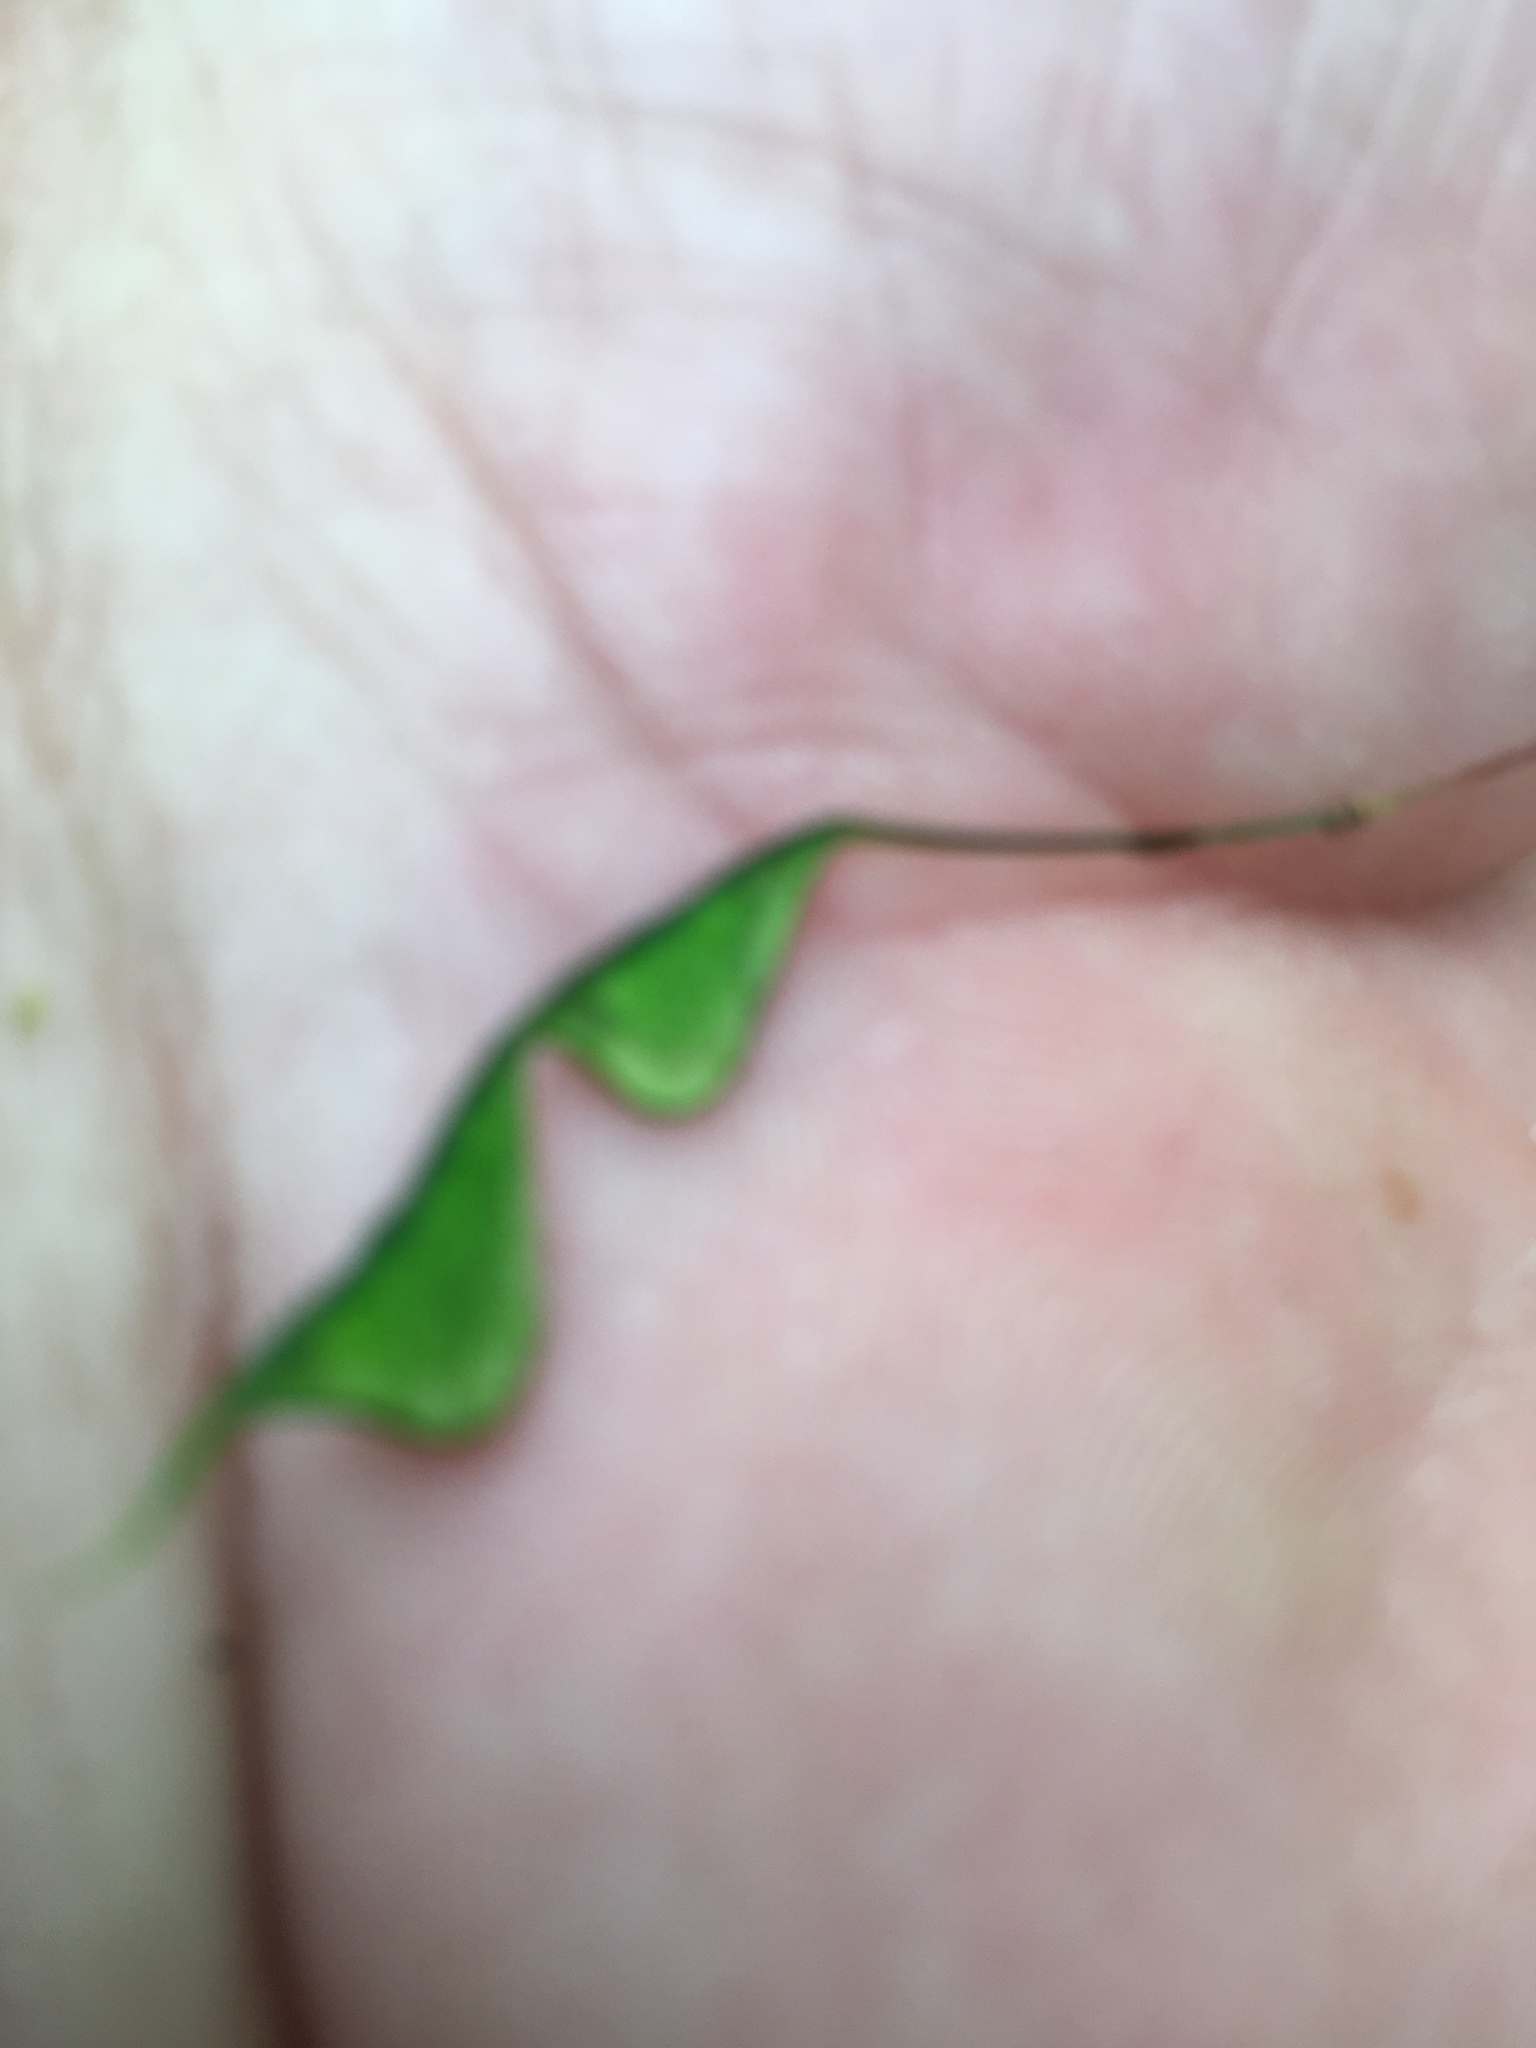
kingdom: Plantae
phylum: Tracheophyta
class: Magnoliopsida
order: Fabales
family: Fabaceae
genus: Hylodesmum
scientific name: Hylodesmum nudiflorum
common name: Bare-stemmed tick-trefoil
